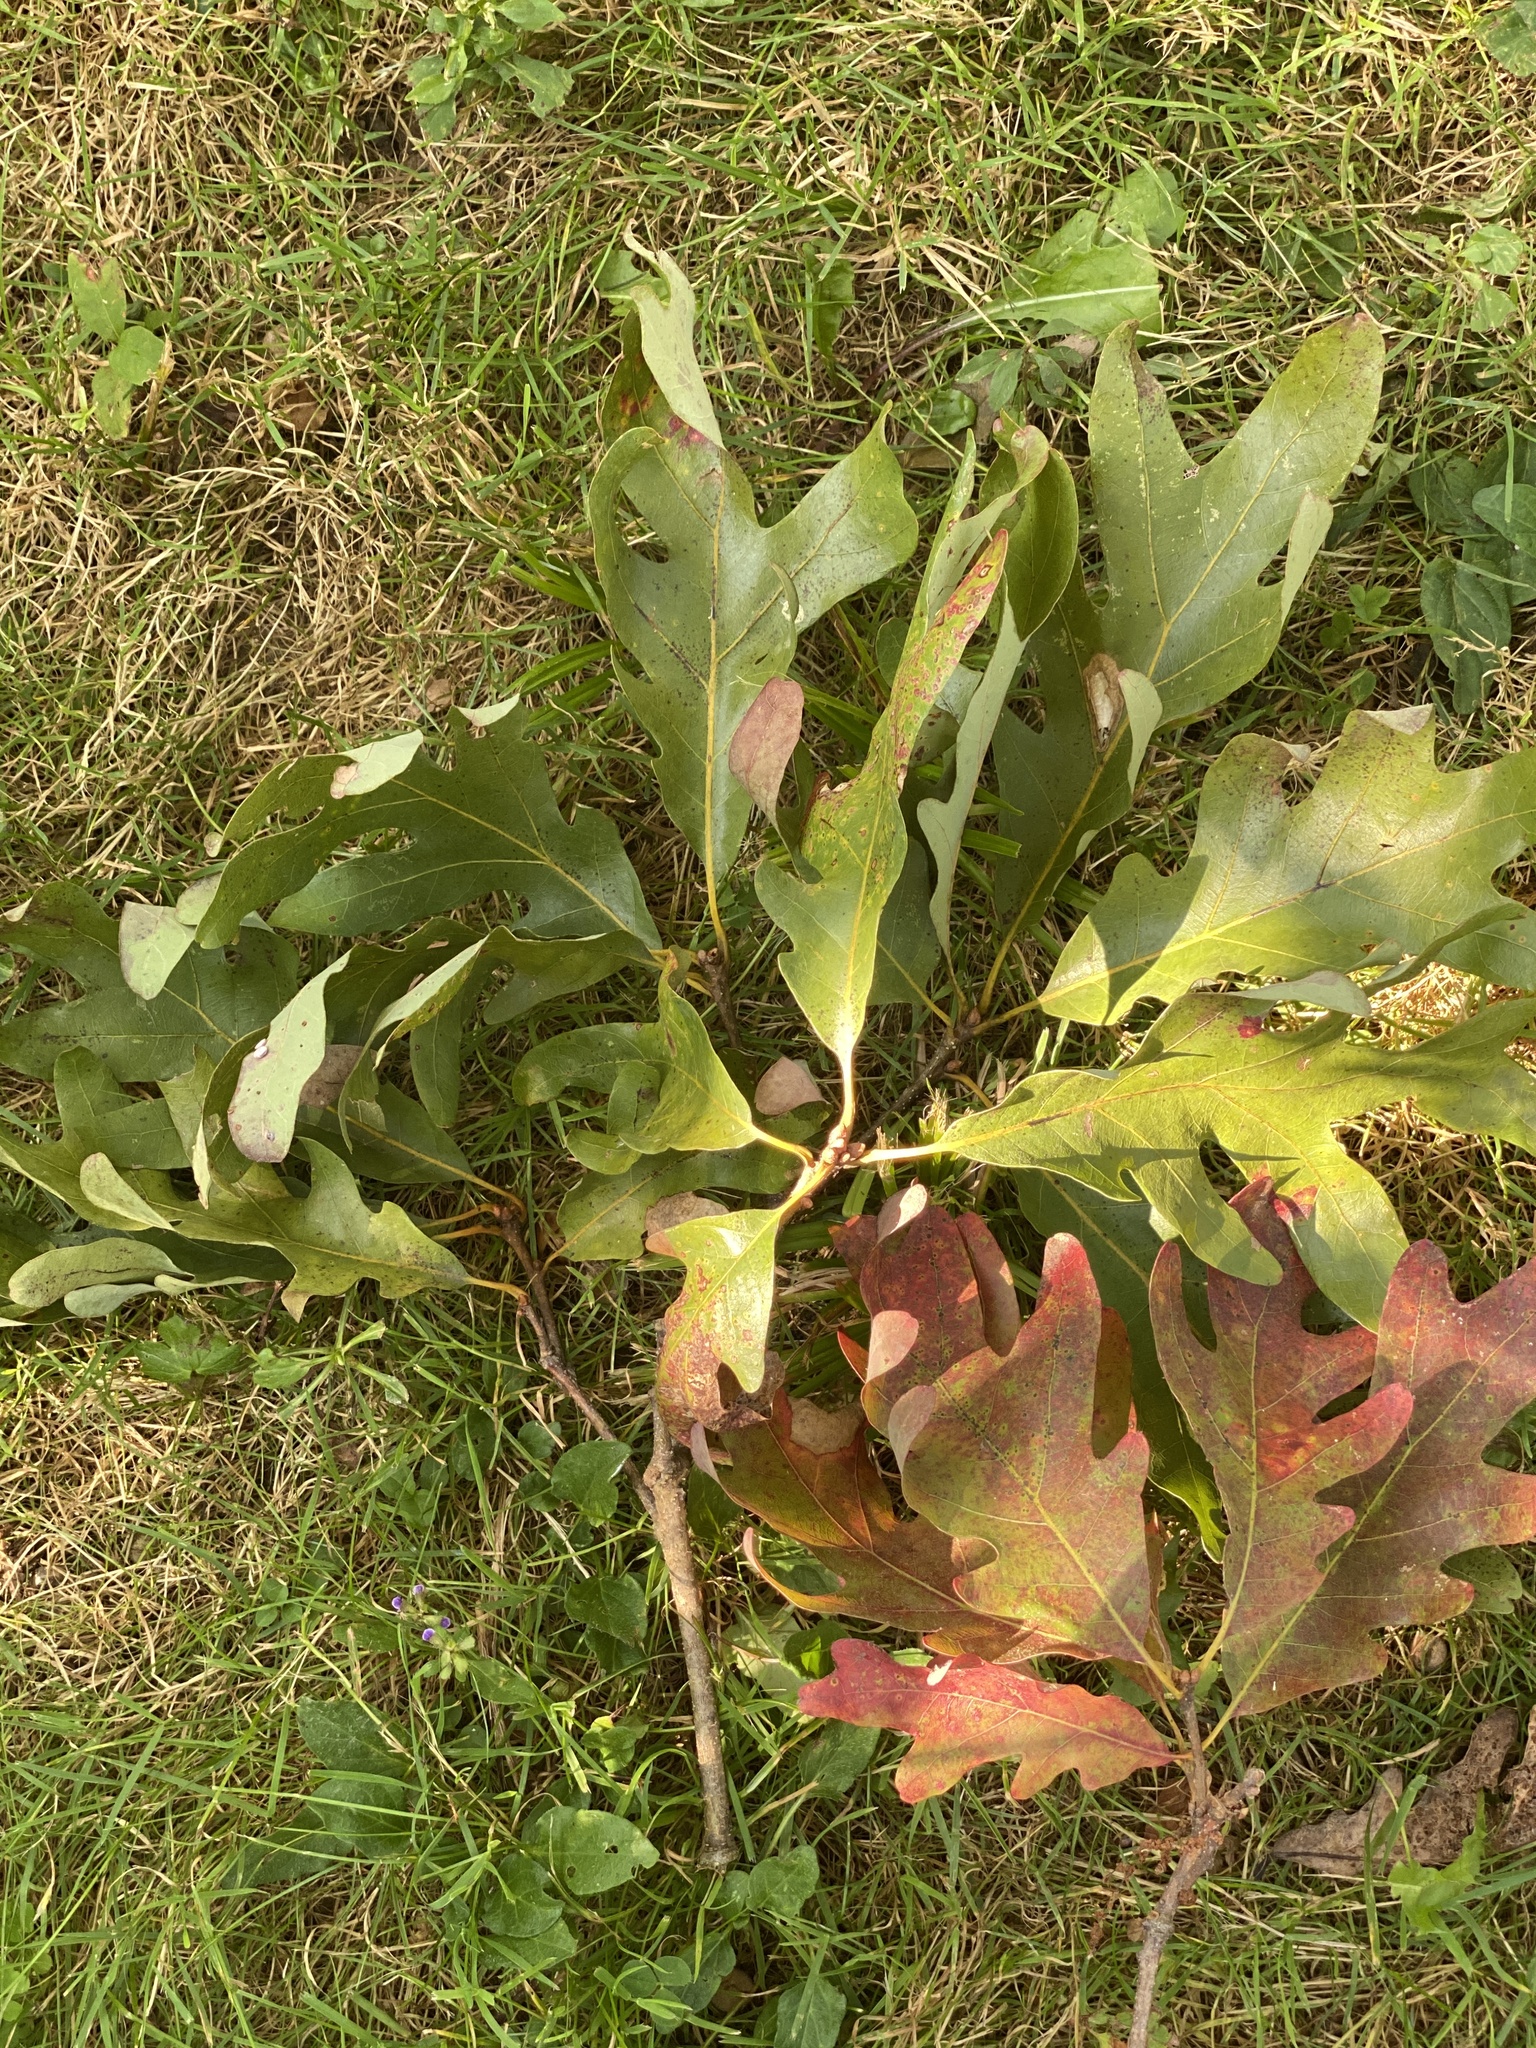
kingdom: Plantae
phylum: Tracheophyta
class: Magnoliopsida
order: Fagales
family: Fagaceae
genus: Quercus
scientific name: Quercus alba
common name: White oak
